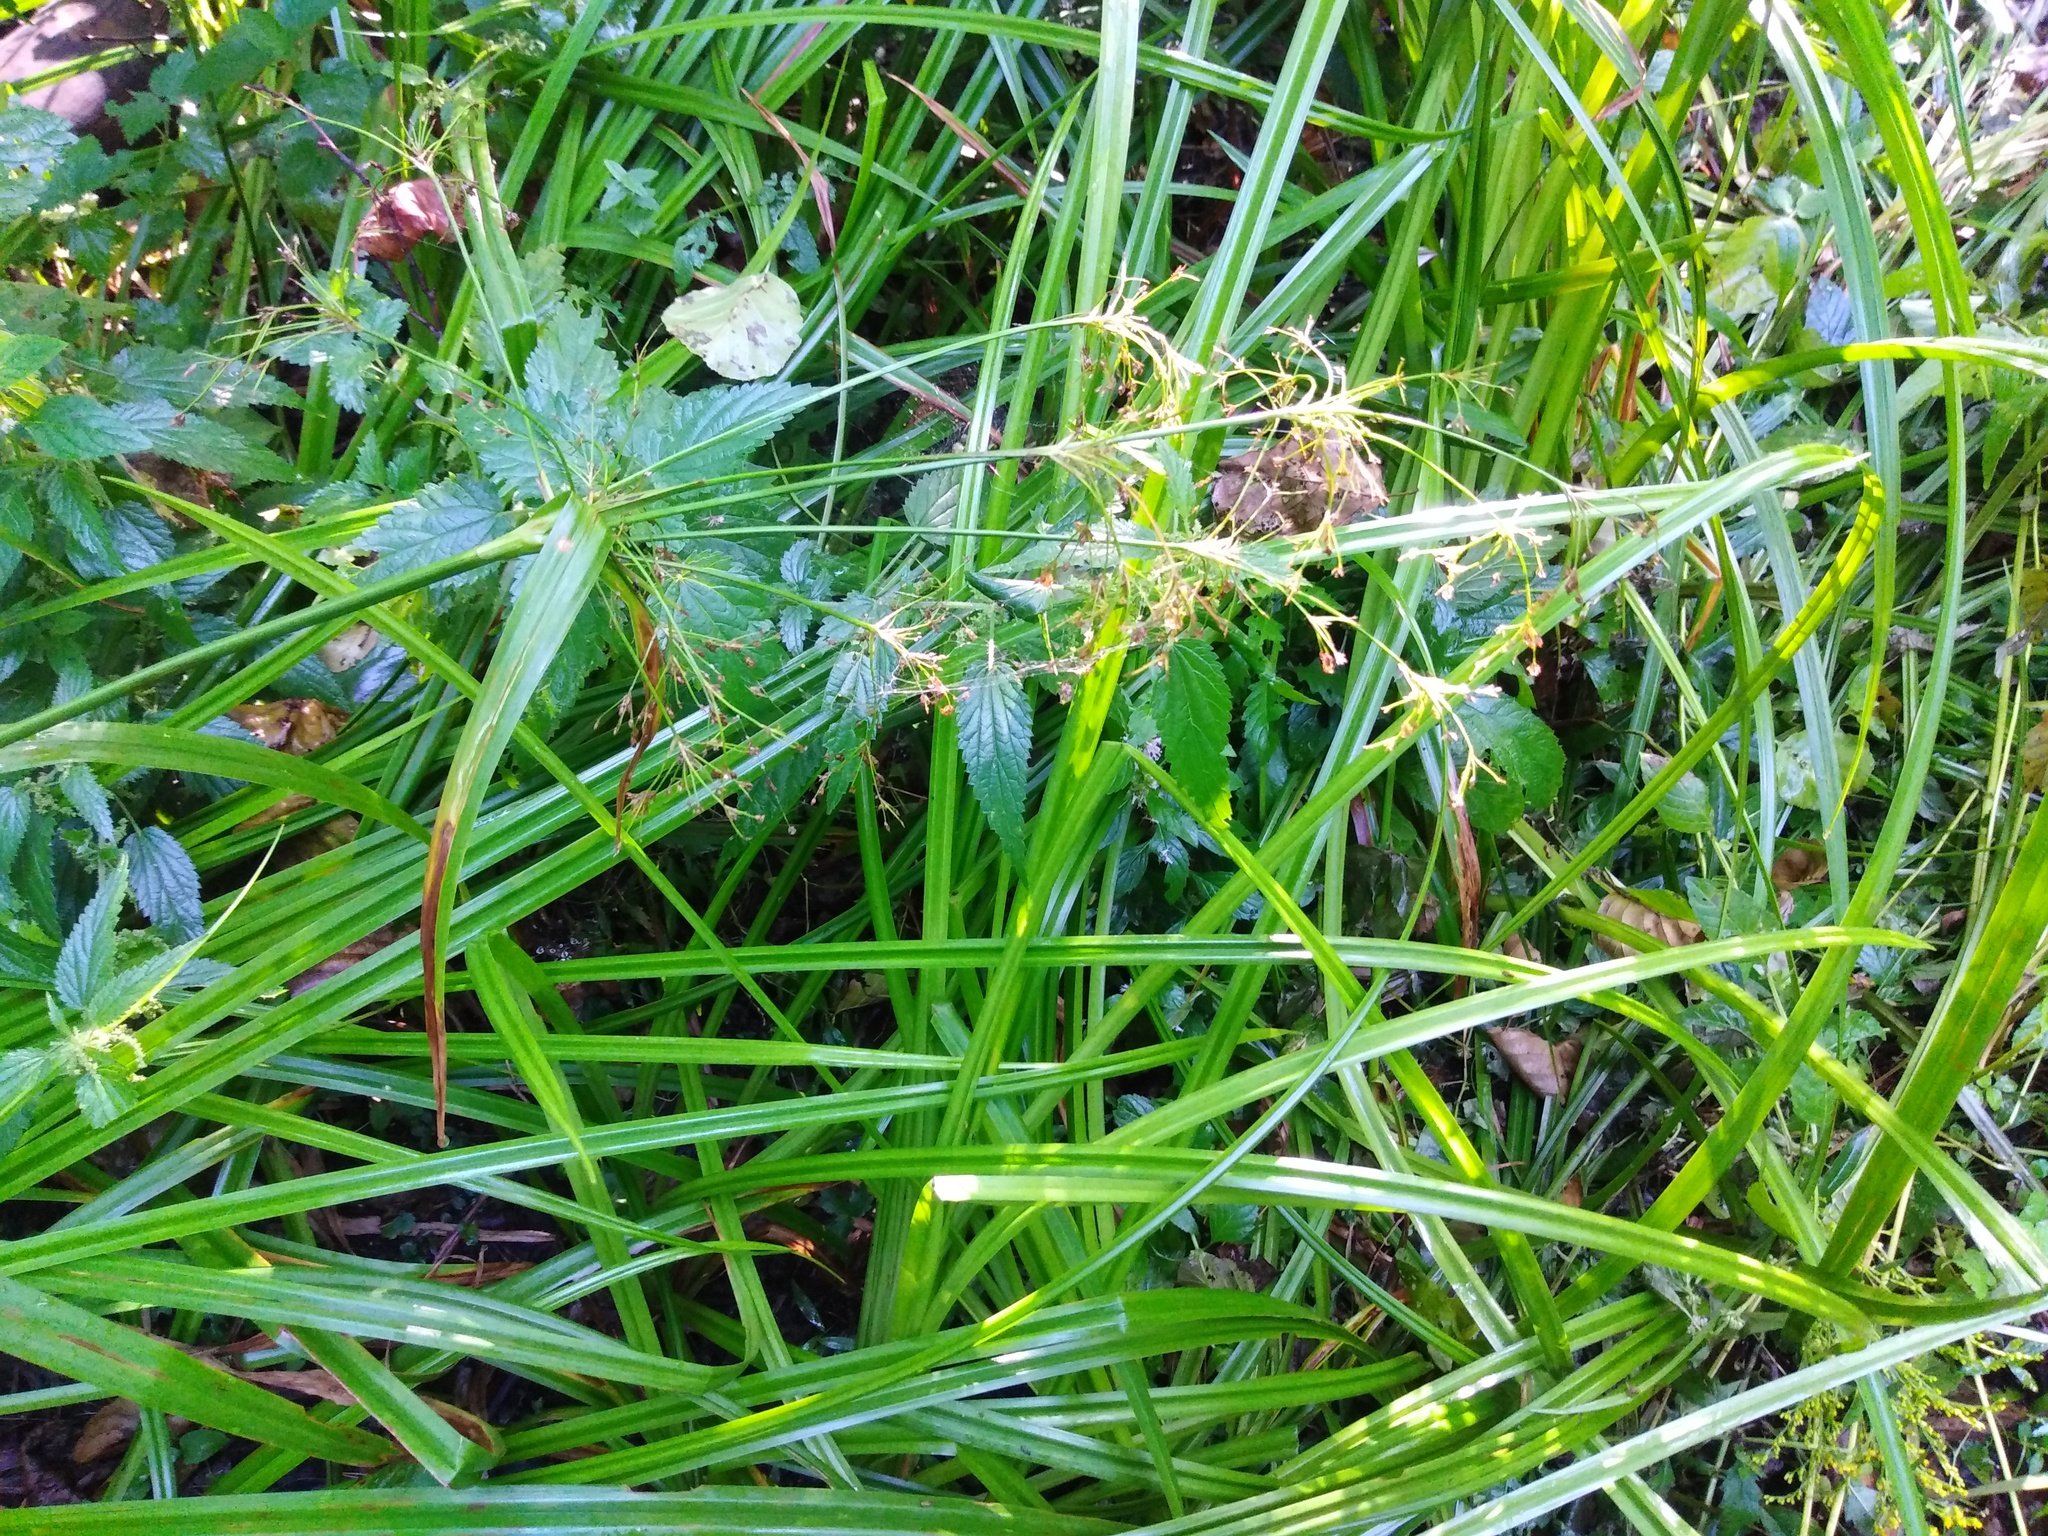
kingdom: Plantae
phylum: Tracheophyta
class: Liliopsida
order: Poales
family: Cyperaceae
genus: Scirpus
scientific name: Scirpus sylvaticus
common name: Wood club-rush
